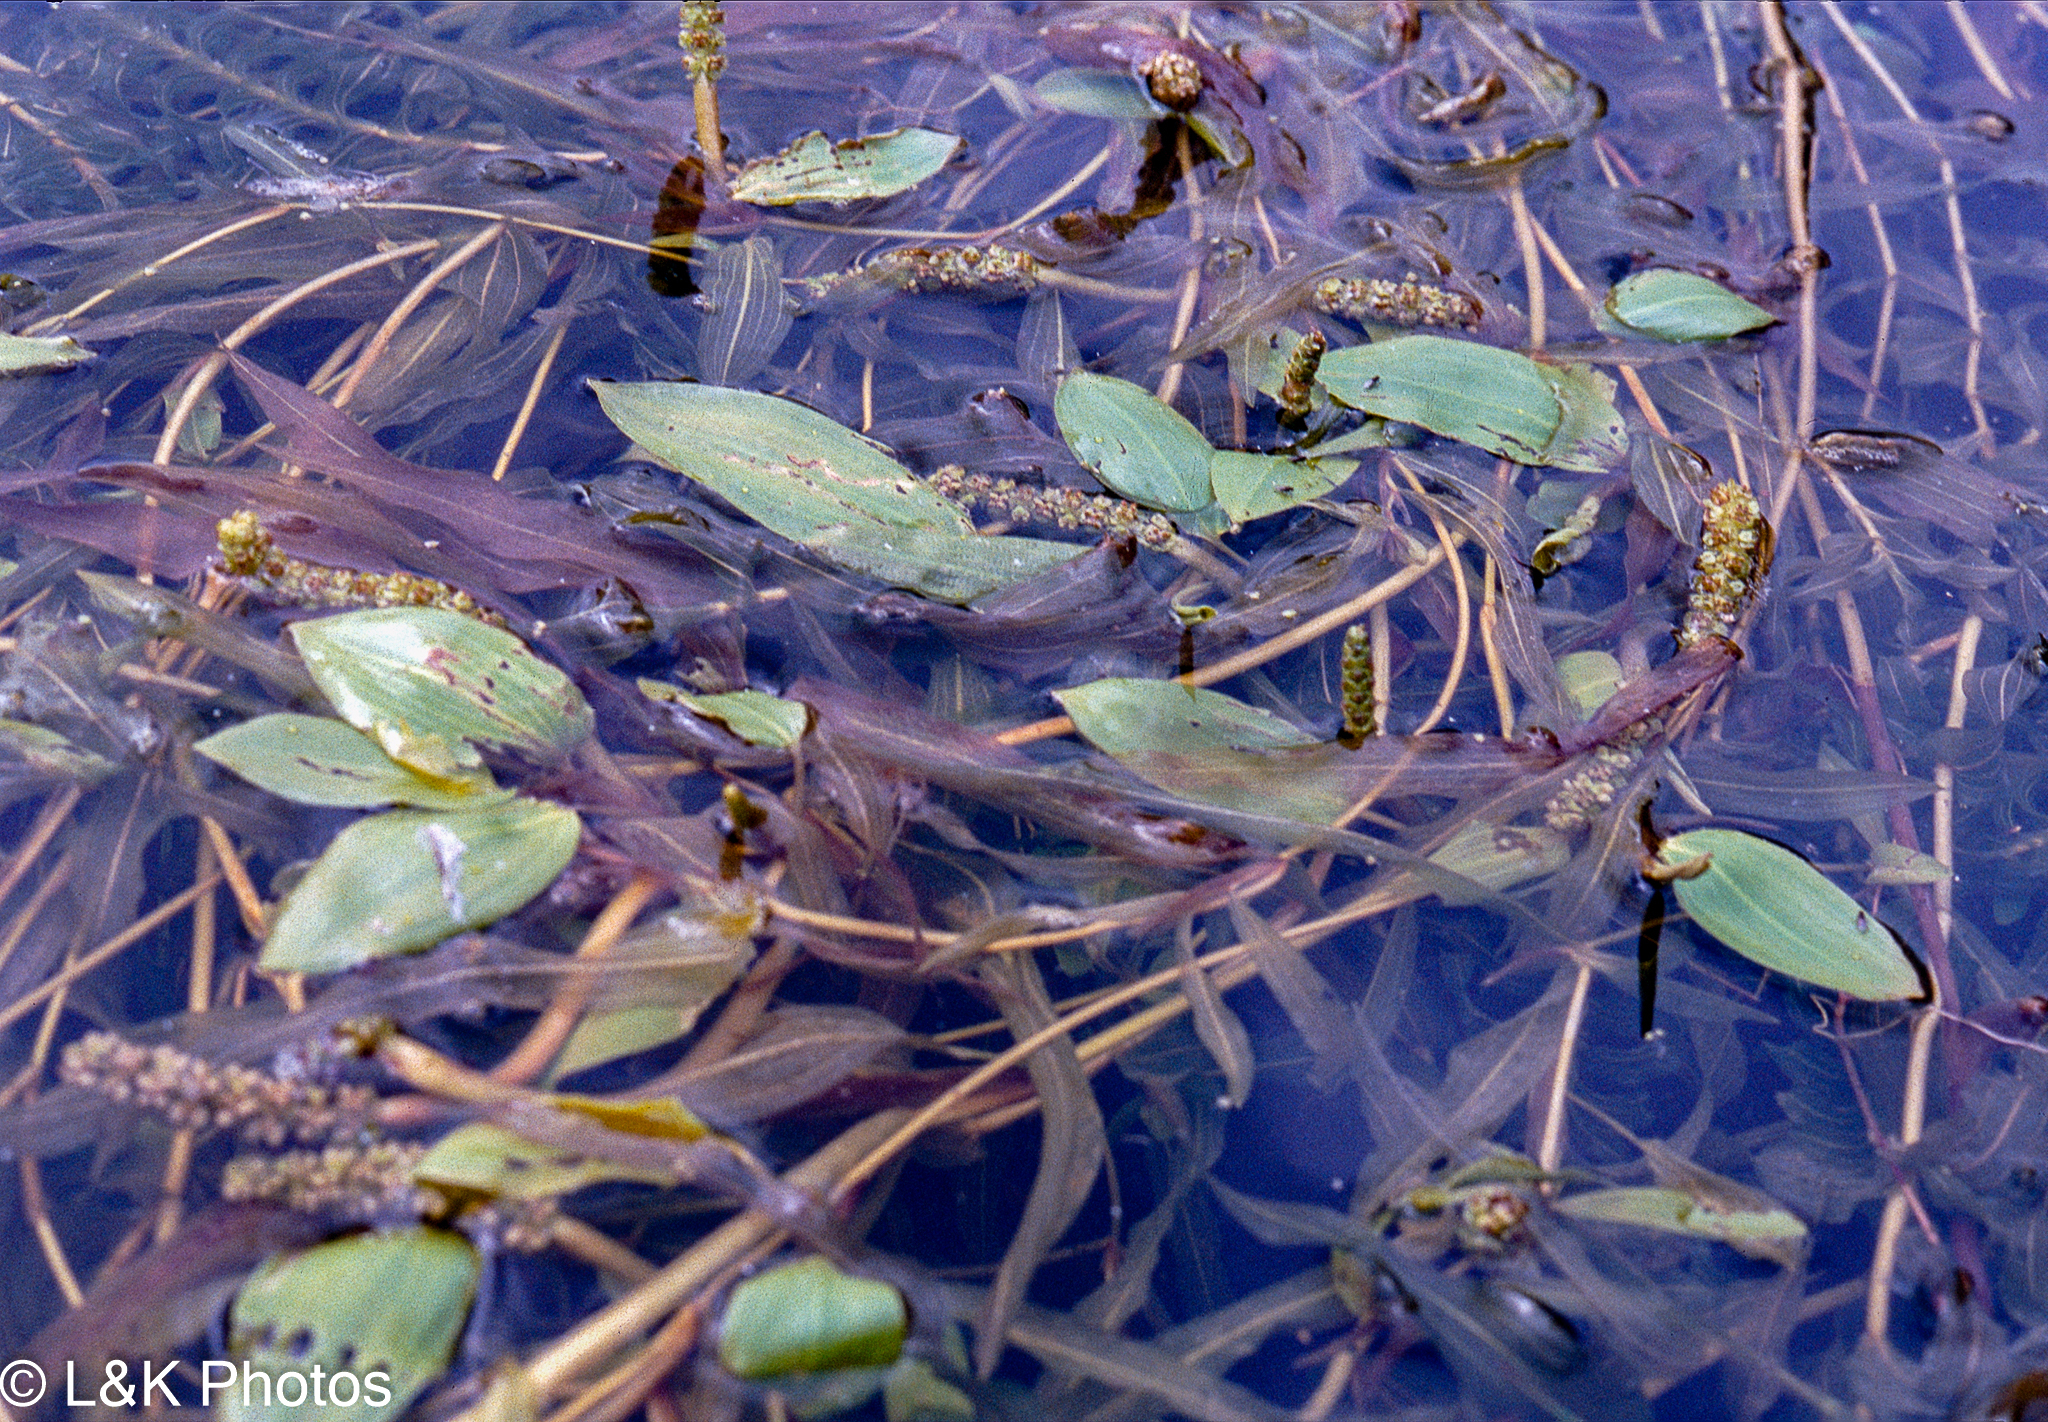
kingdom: Plantae
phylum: Tracheophyta
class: Liliopsida
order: Alismatales
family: Potamogetonaceae
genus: Potamogeton
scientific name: Potamogeton gramineus
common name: Various-leaved pondweed
